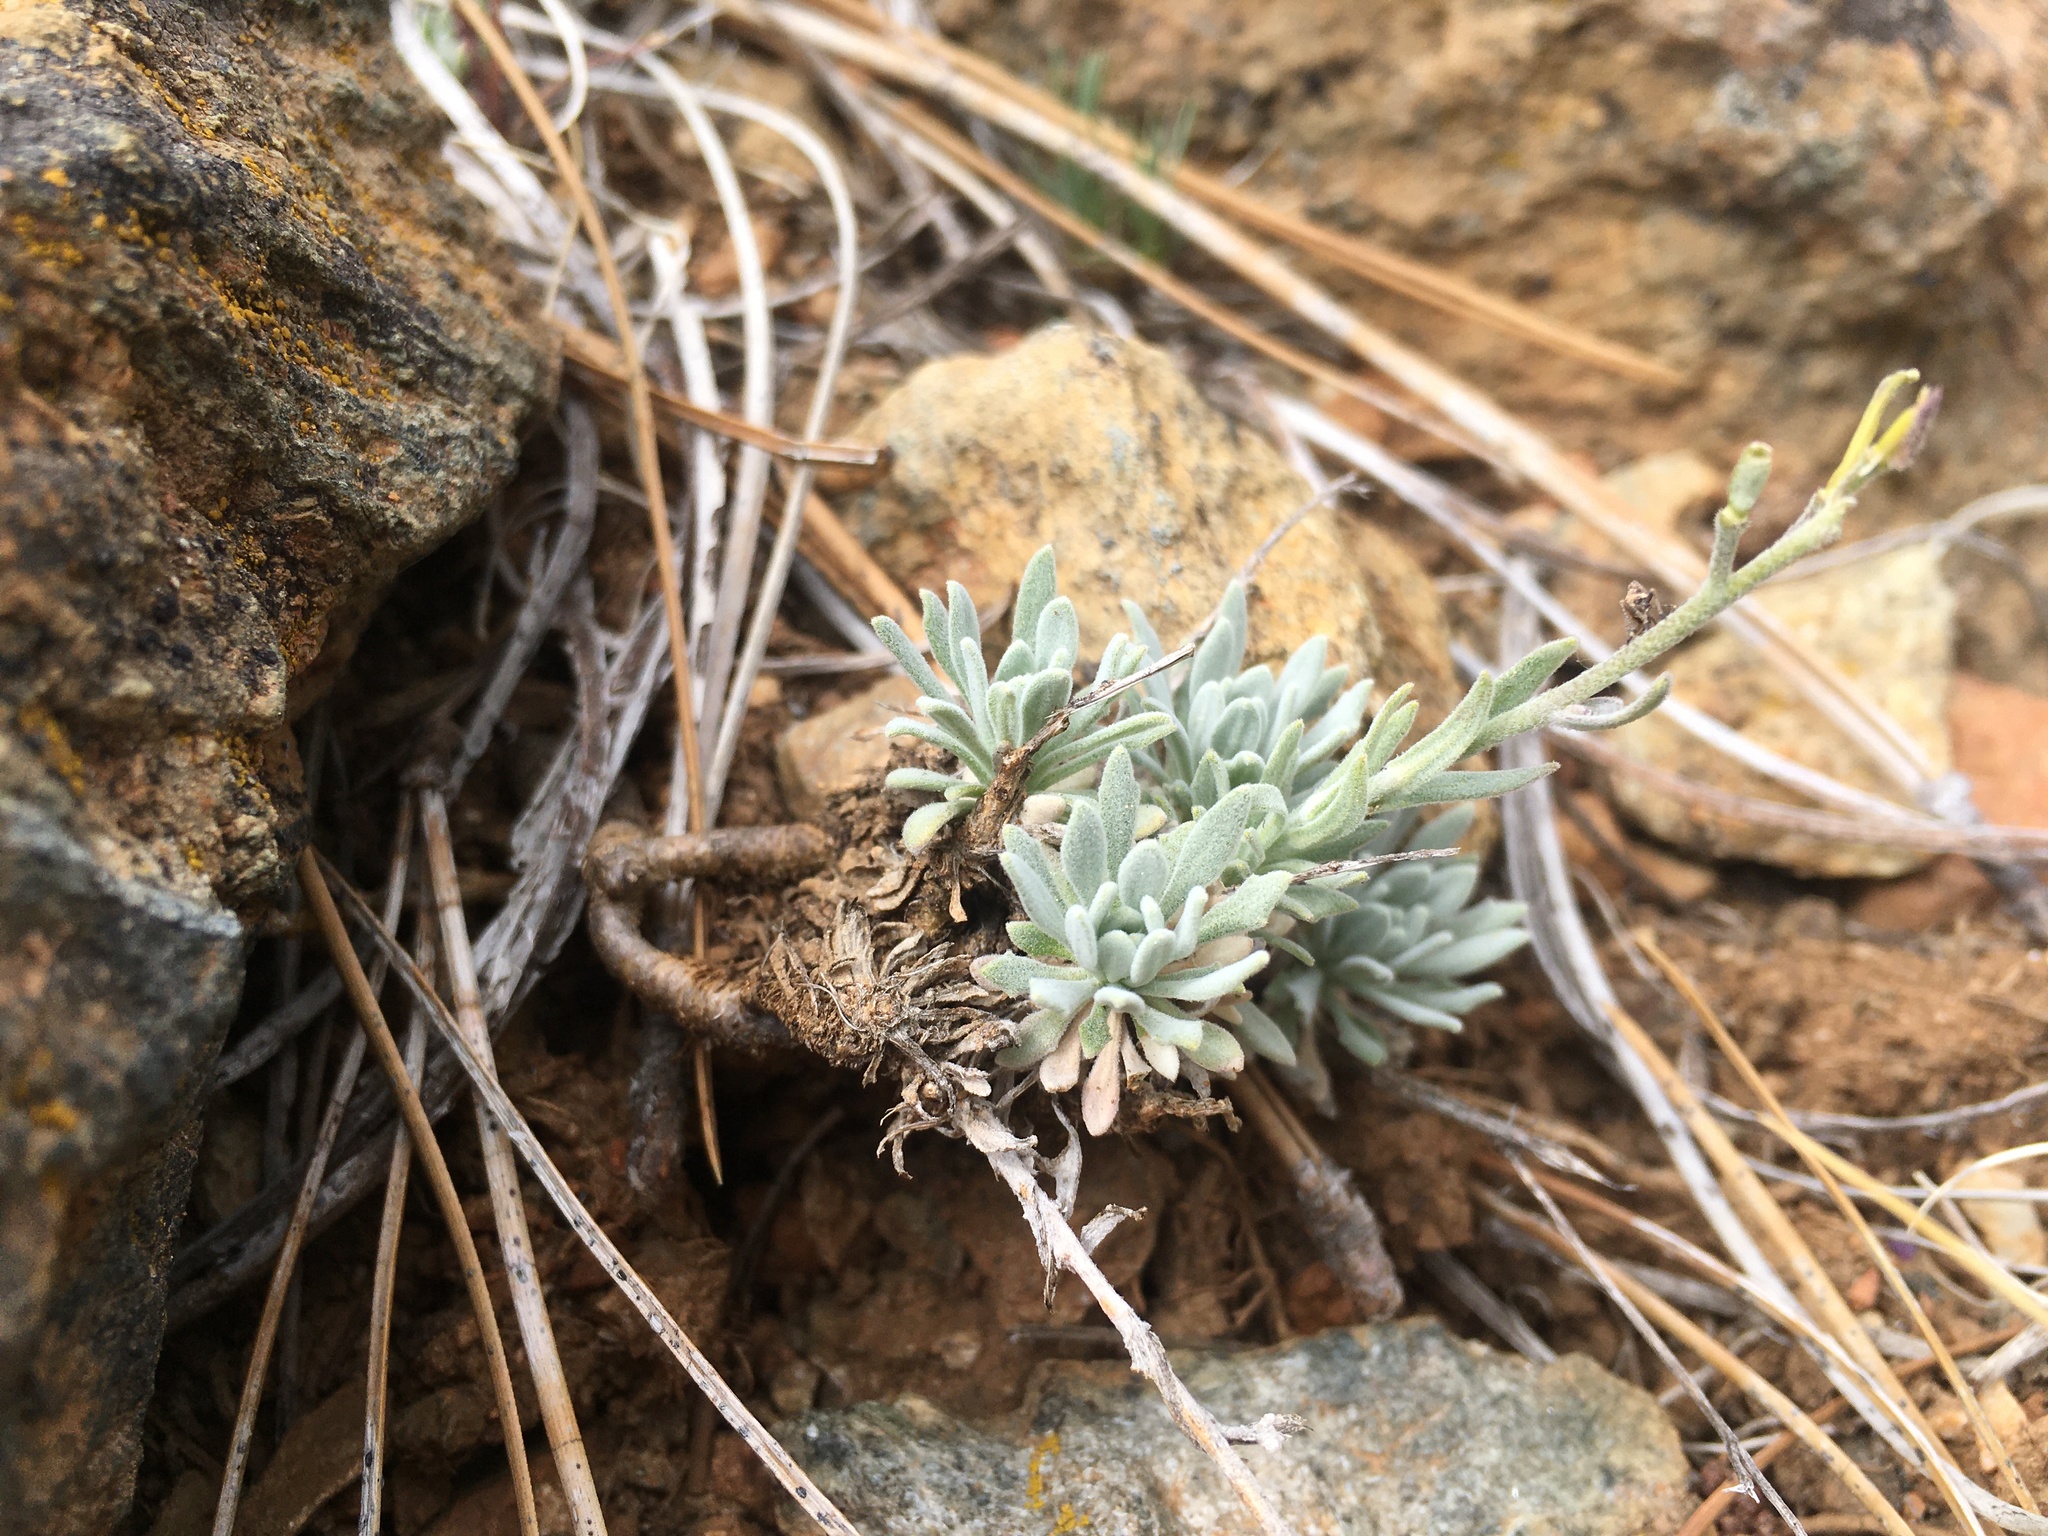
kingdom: Plantae
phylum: Tracheophyta
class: Magnoliopsida
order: Brassicales
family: Brassicaceae
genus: Boechera
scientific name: Boechera serpenticola
